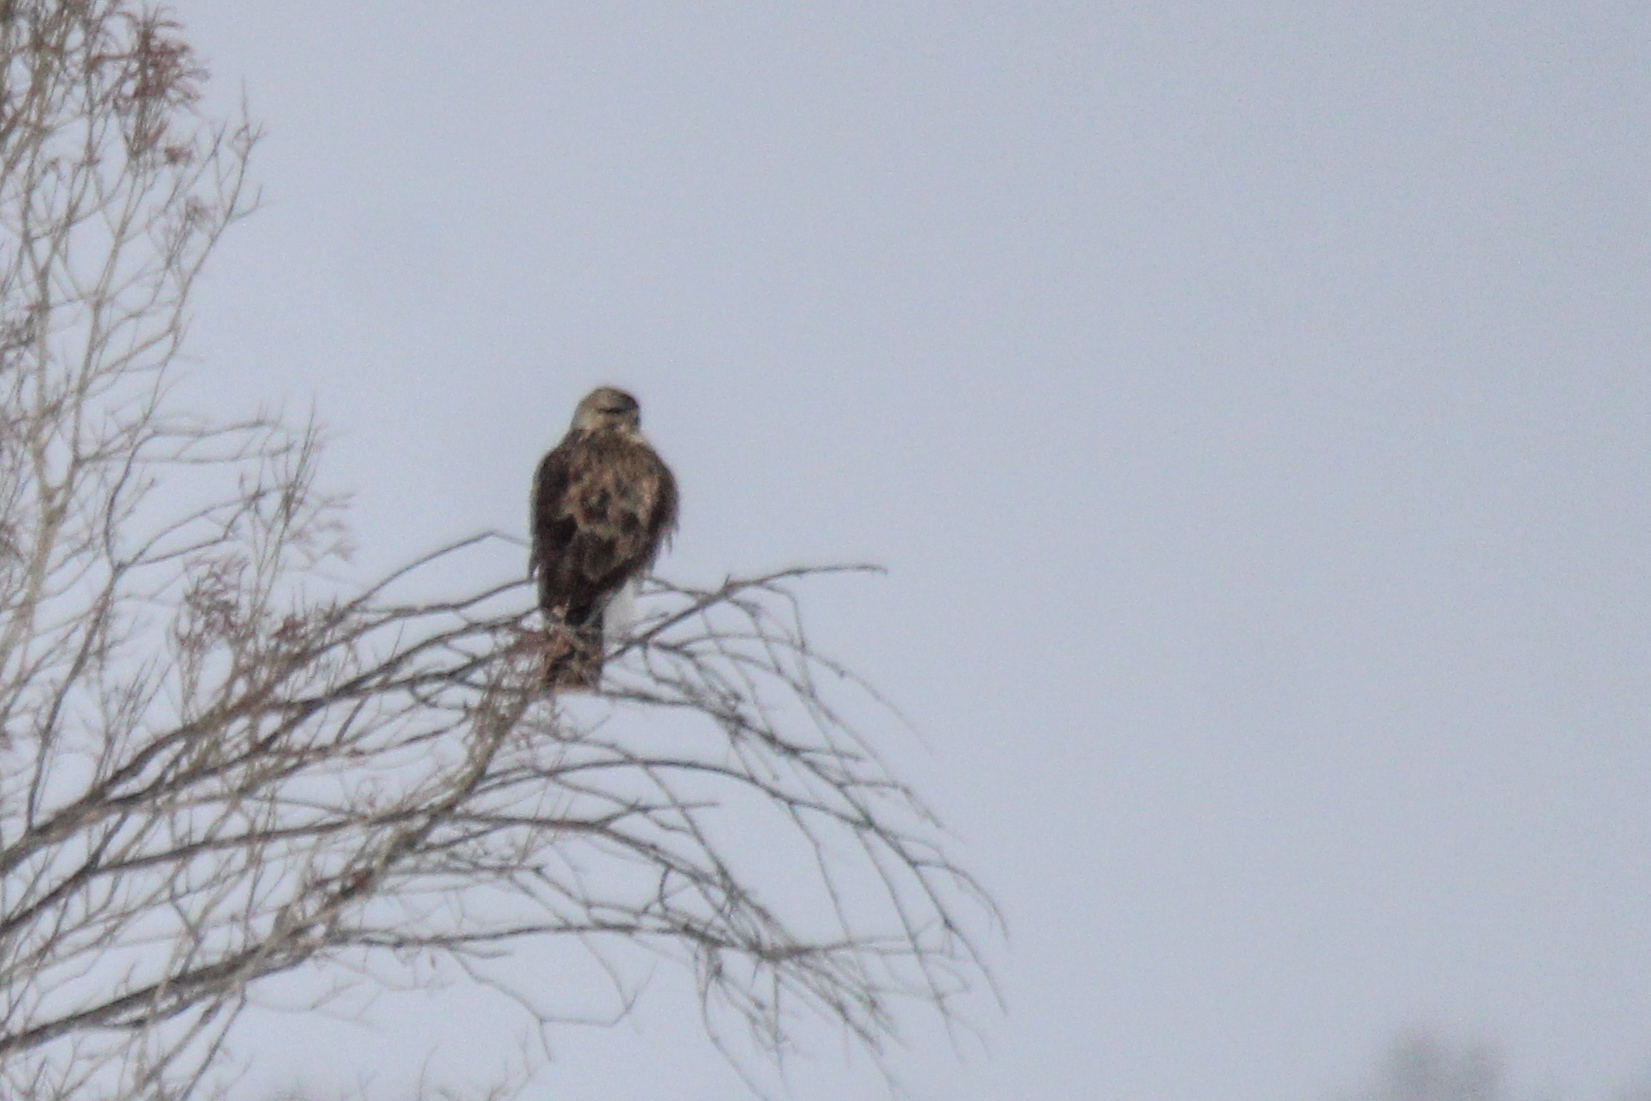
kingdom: Animalia
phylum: Chordata
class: Aves
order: Accipitriformes
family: Accipitridae
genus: Buteo
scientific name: Buteo hemilasius
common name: Upland buzzard
